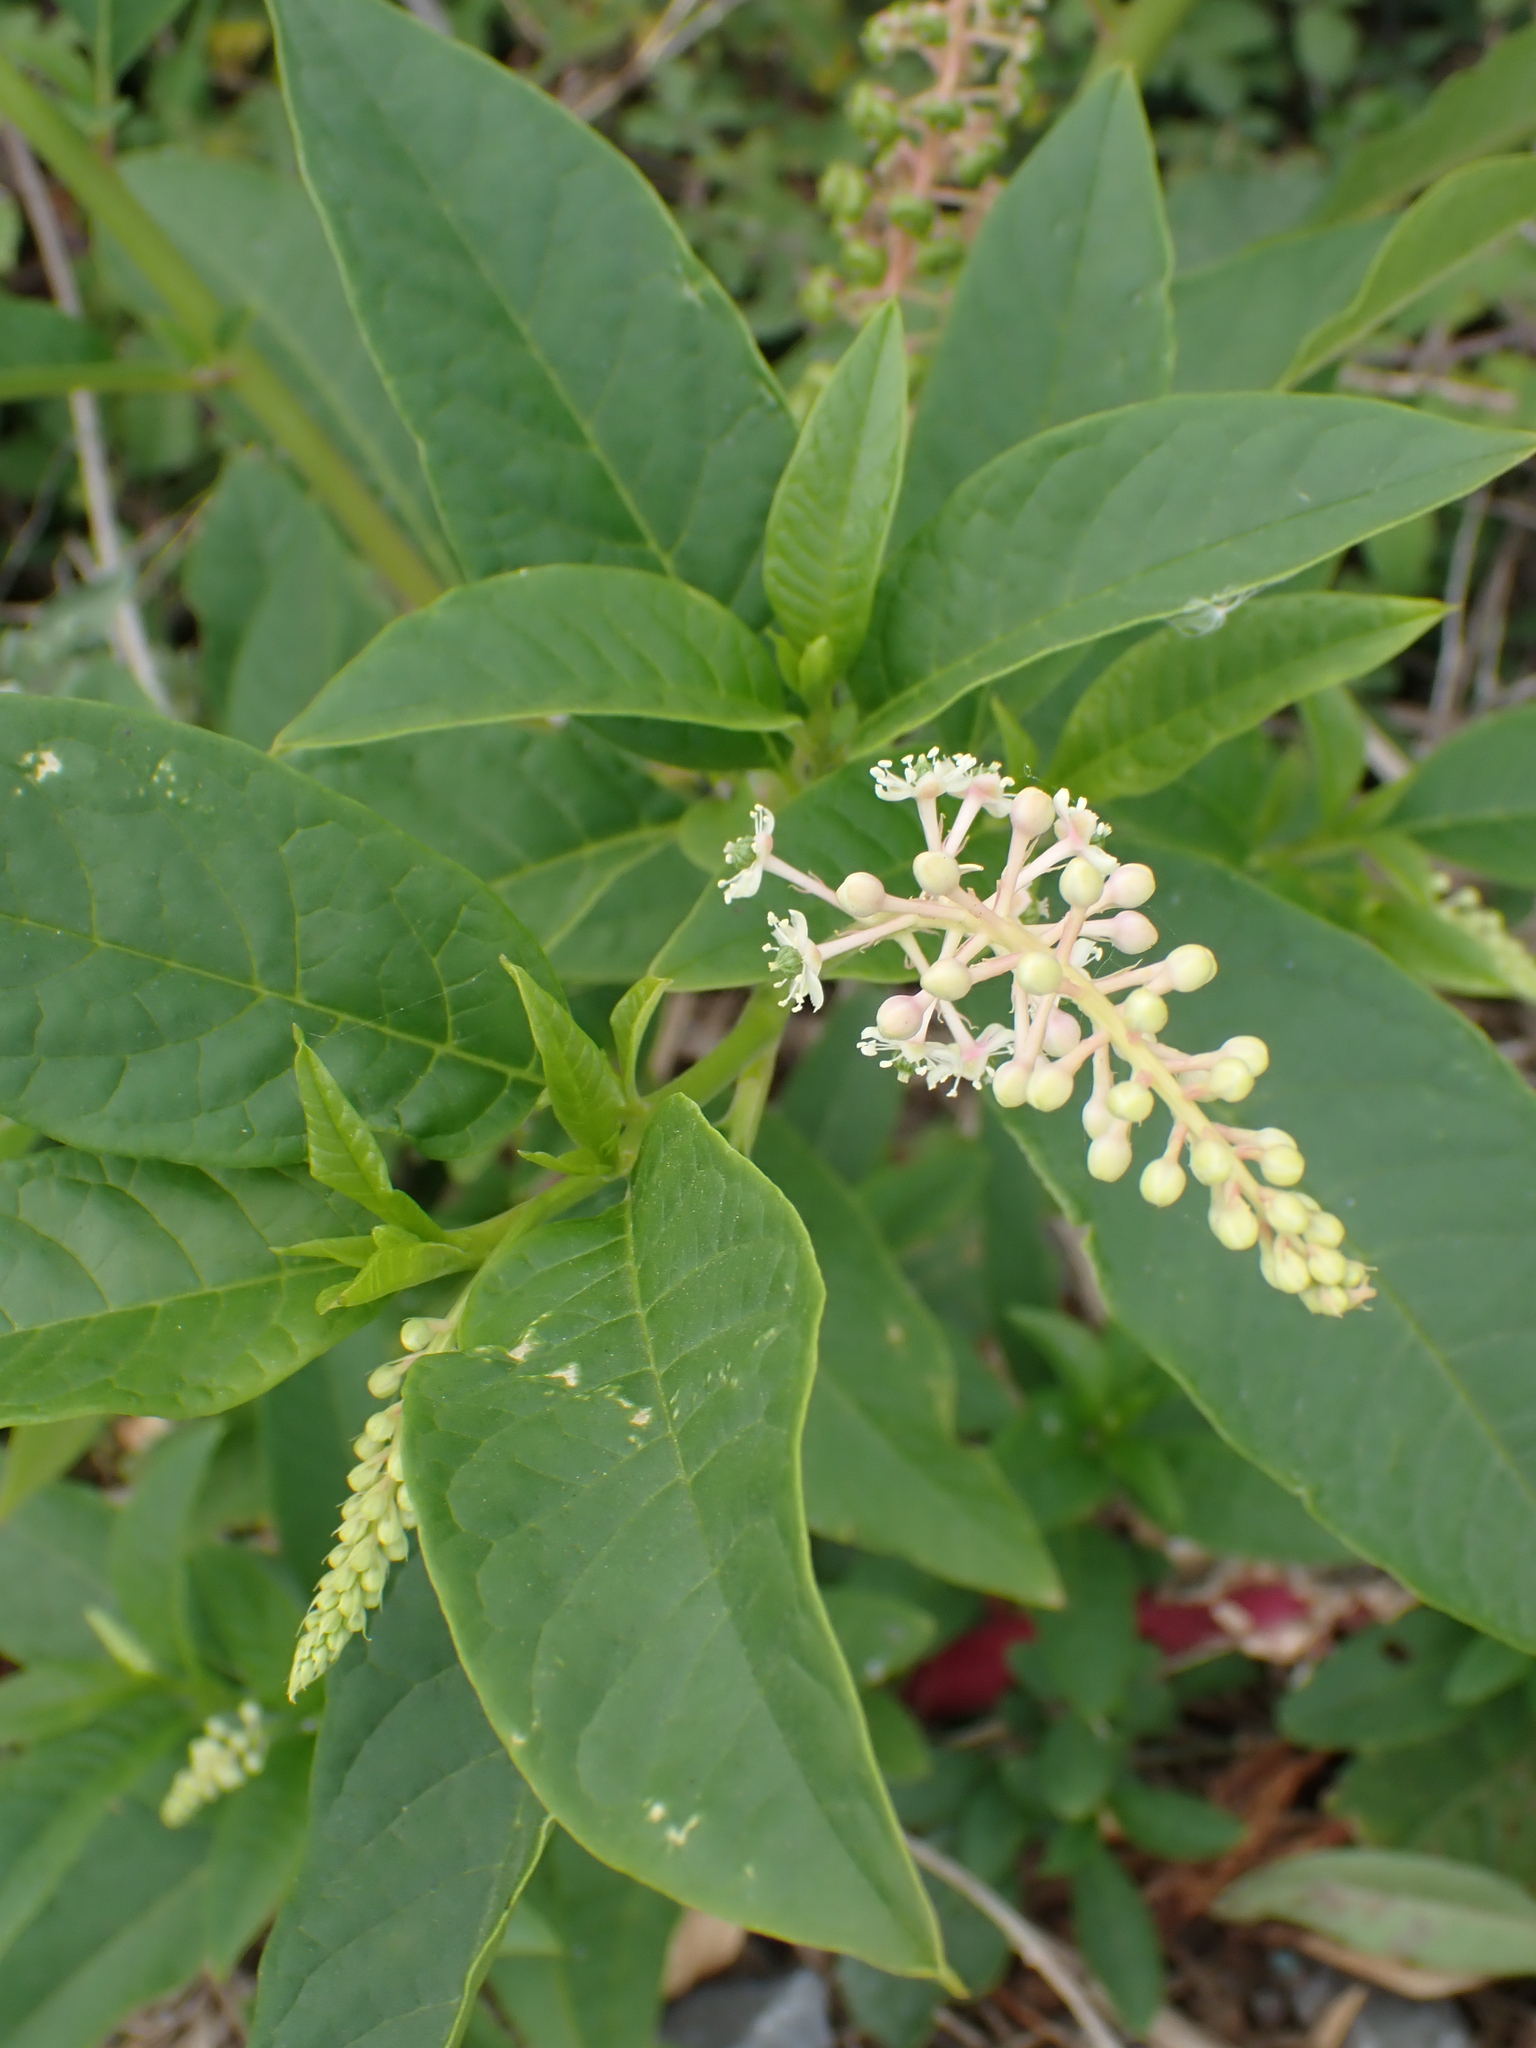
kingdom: Plantae
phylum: Tracheophyta
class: Magnoliopsida
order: Caryophyllales
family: Phytolaccaceae
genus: Phytolacca
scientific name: Phytolacca americana
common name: American pokeweed
